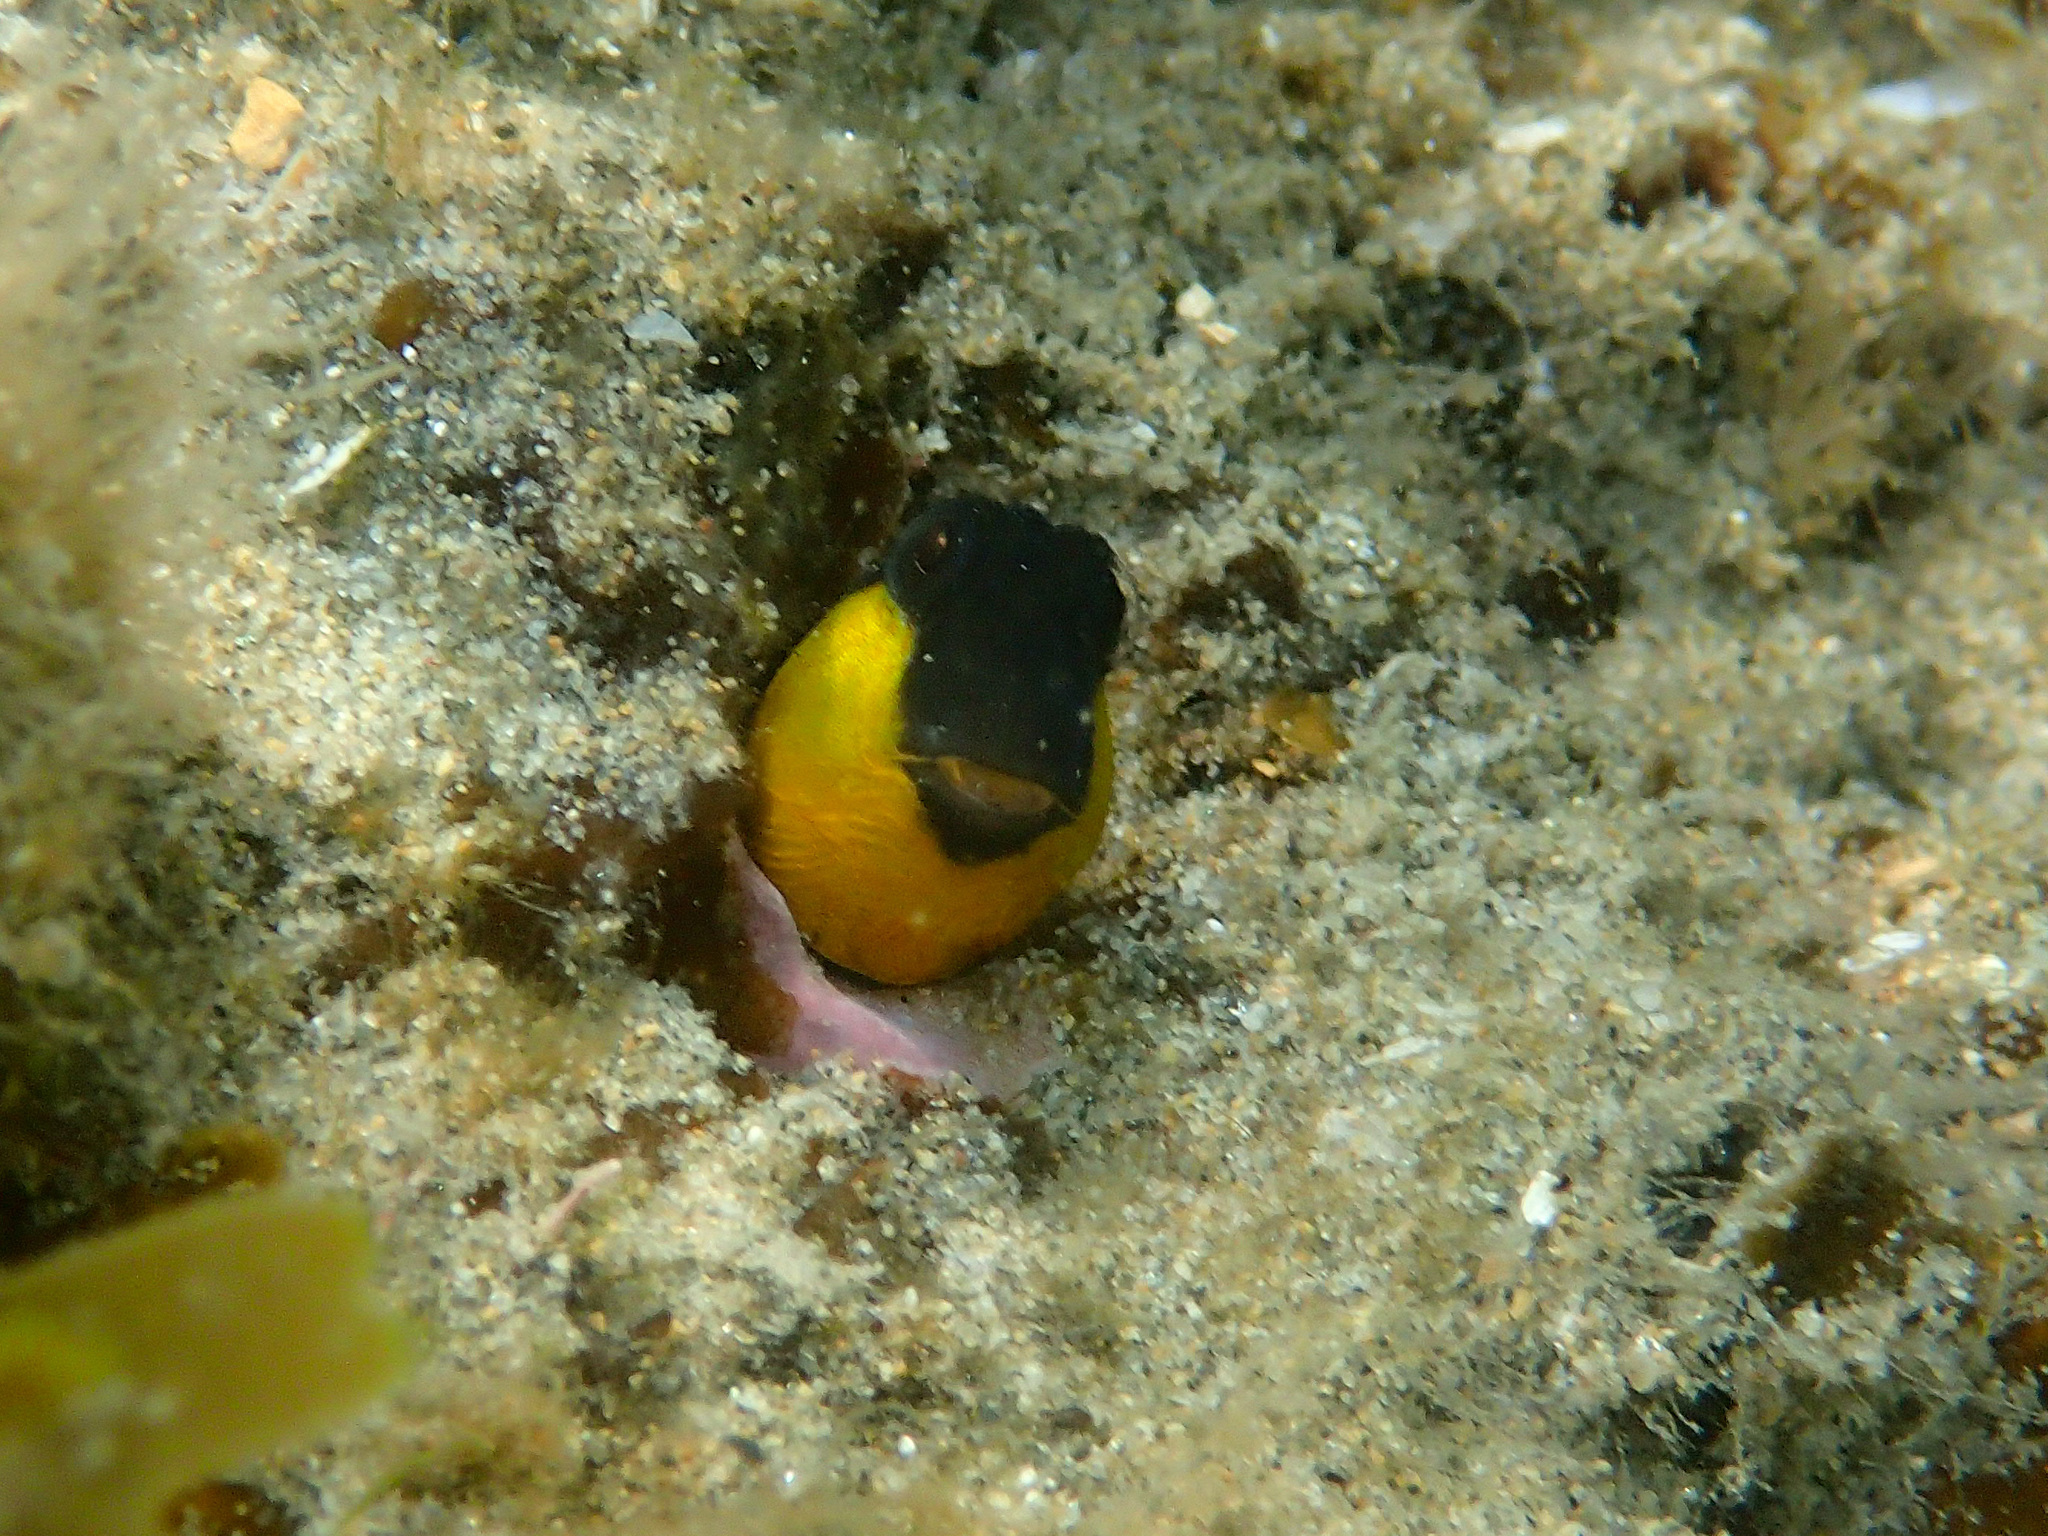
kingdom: Animalia
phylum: Chordata
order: Perciformes
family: Blenniidae
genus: Microlipophrys
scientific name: Microlipophrys canevae
